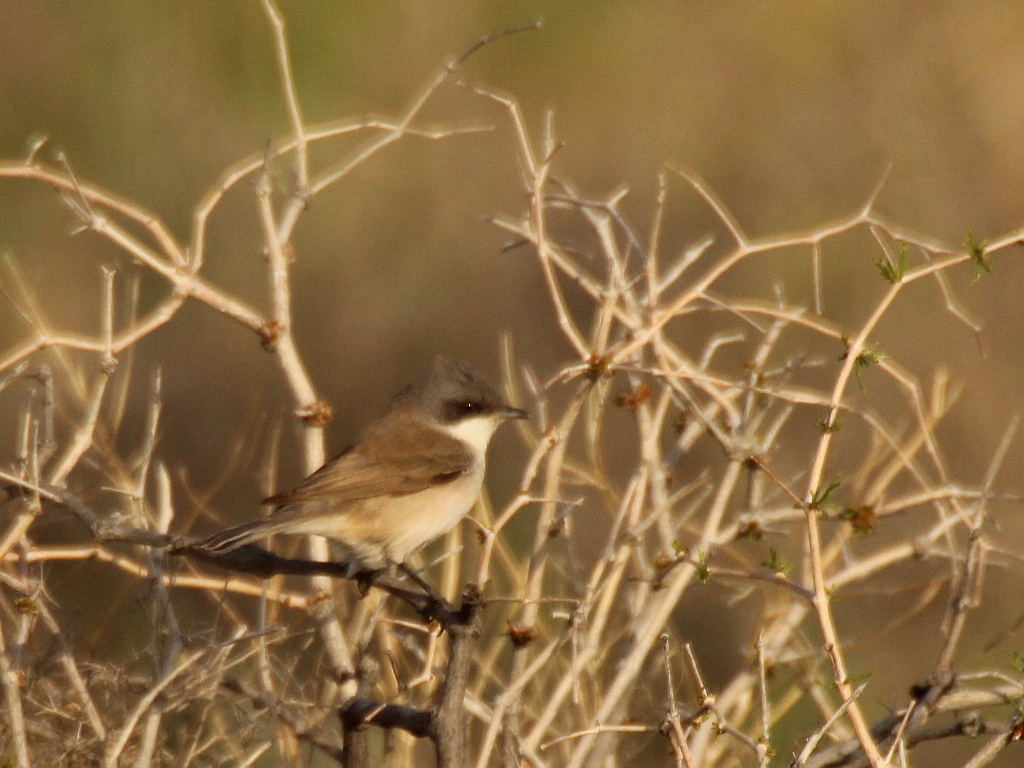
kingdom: Animalia
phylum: Chordata
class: Aves
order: Passeriformes
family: Sylviidae
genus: Sylvia
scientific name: Sylvia curruca
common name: Lesser whitethroat
